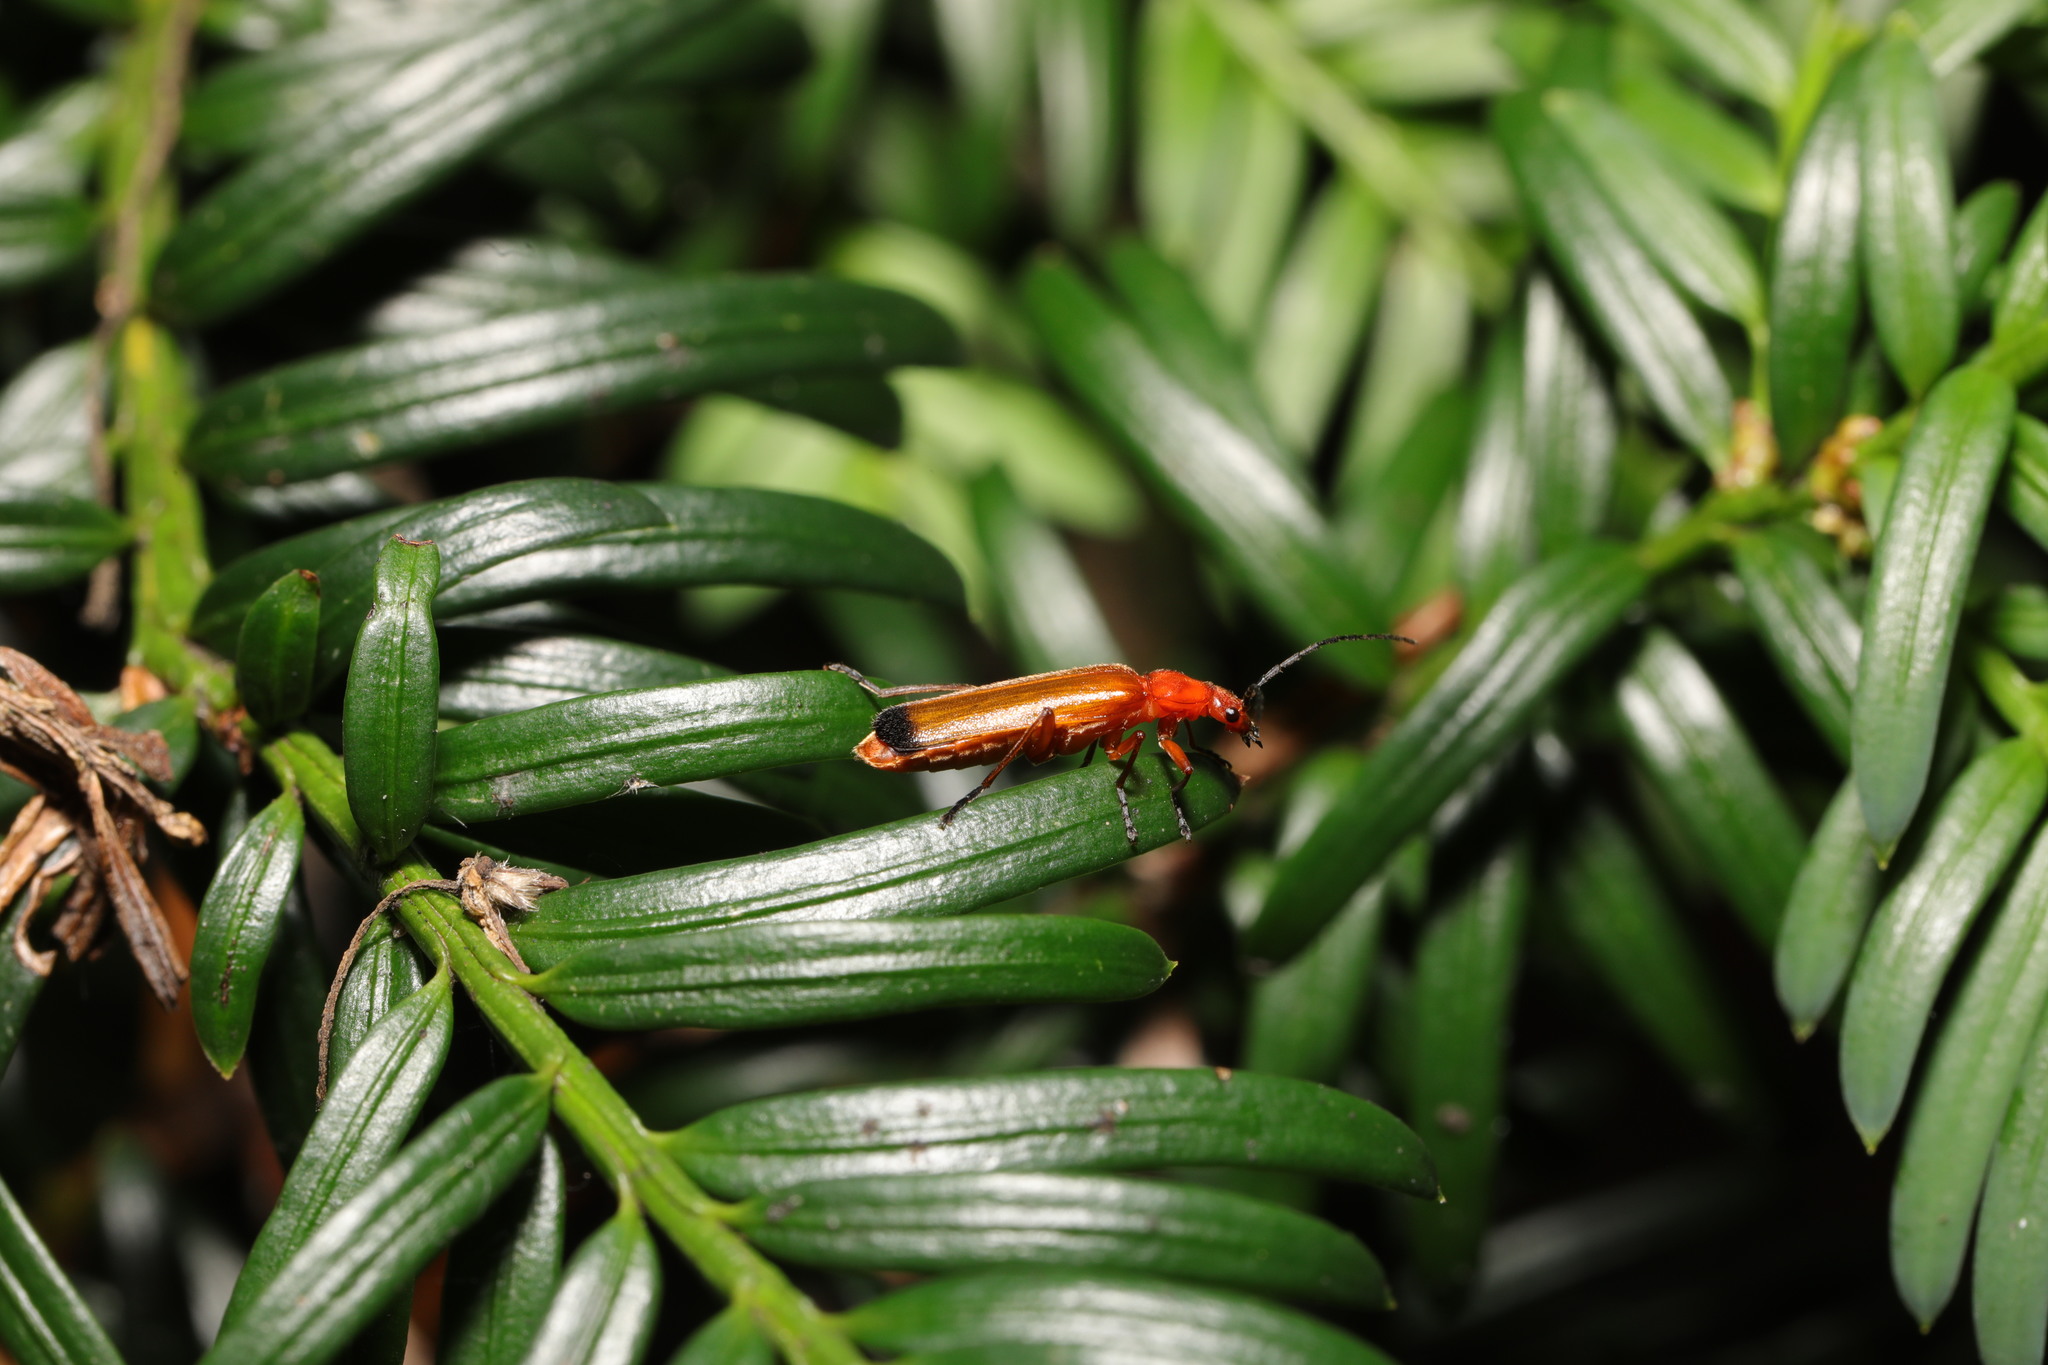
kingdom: Animalia
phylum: Arthropoda
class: Insecta
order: Coleoptera
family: Cantharidae
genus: Rhagonycha
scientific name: Rhagonycha fulva
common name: Common red soldier beetle
